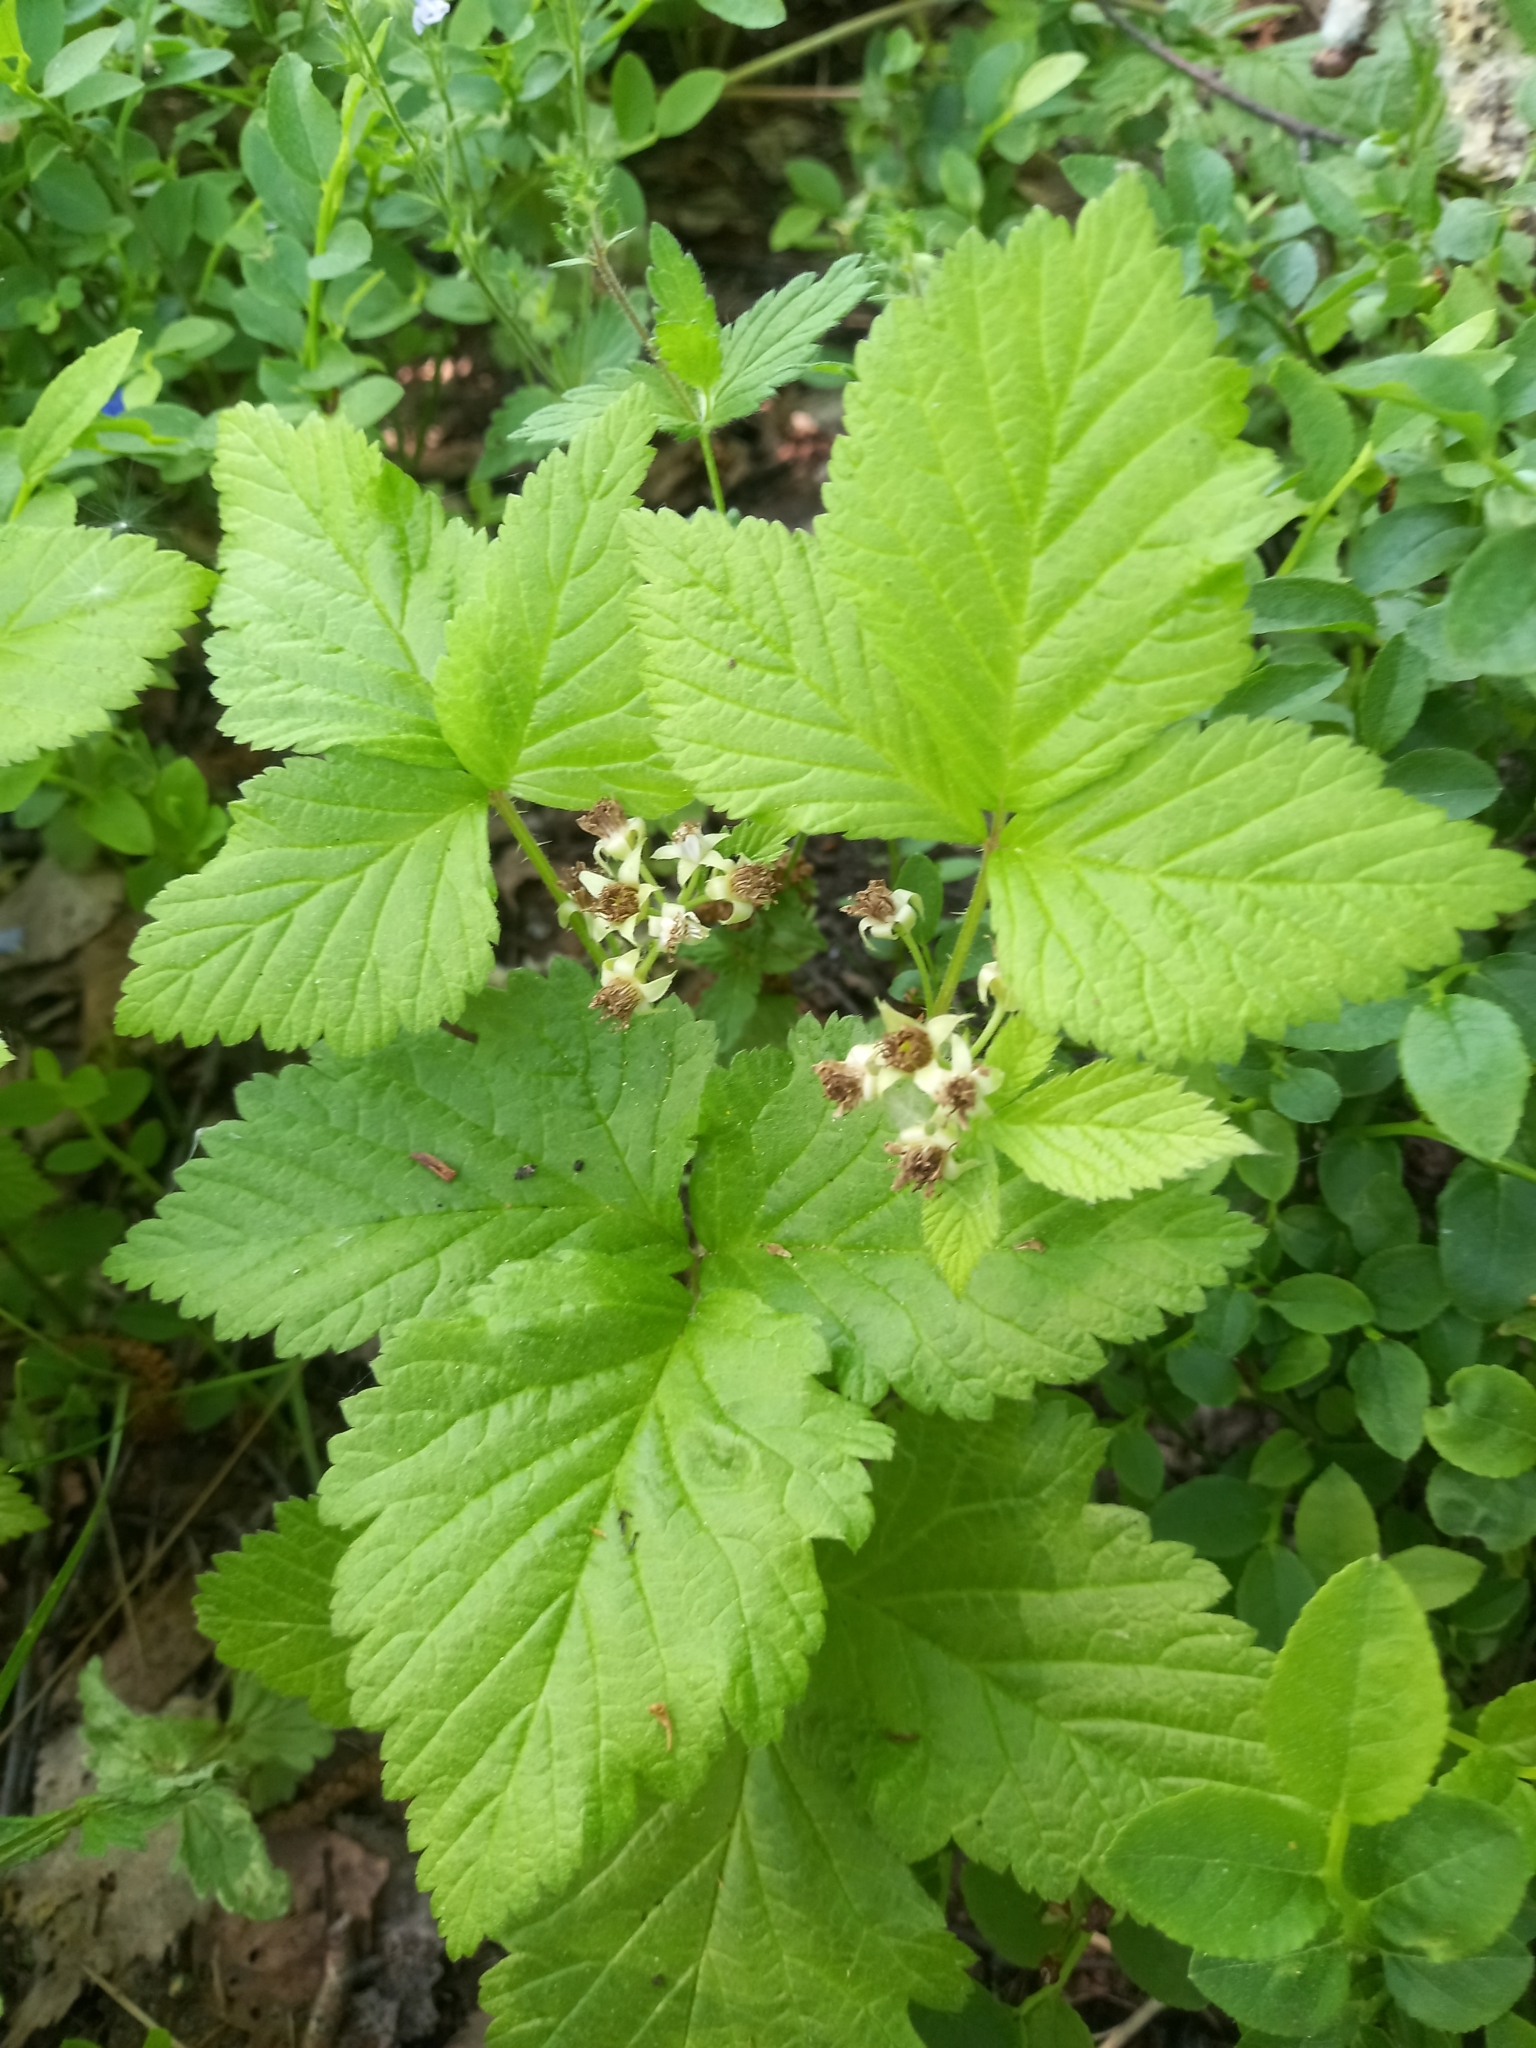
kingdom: Plantae
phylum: Tracheophyta
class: Magnoliopsida
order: Rosales
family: Rosaceae
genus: Rubus
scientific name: Rubus saxatilis
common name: Stone bramble
